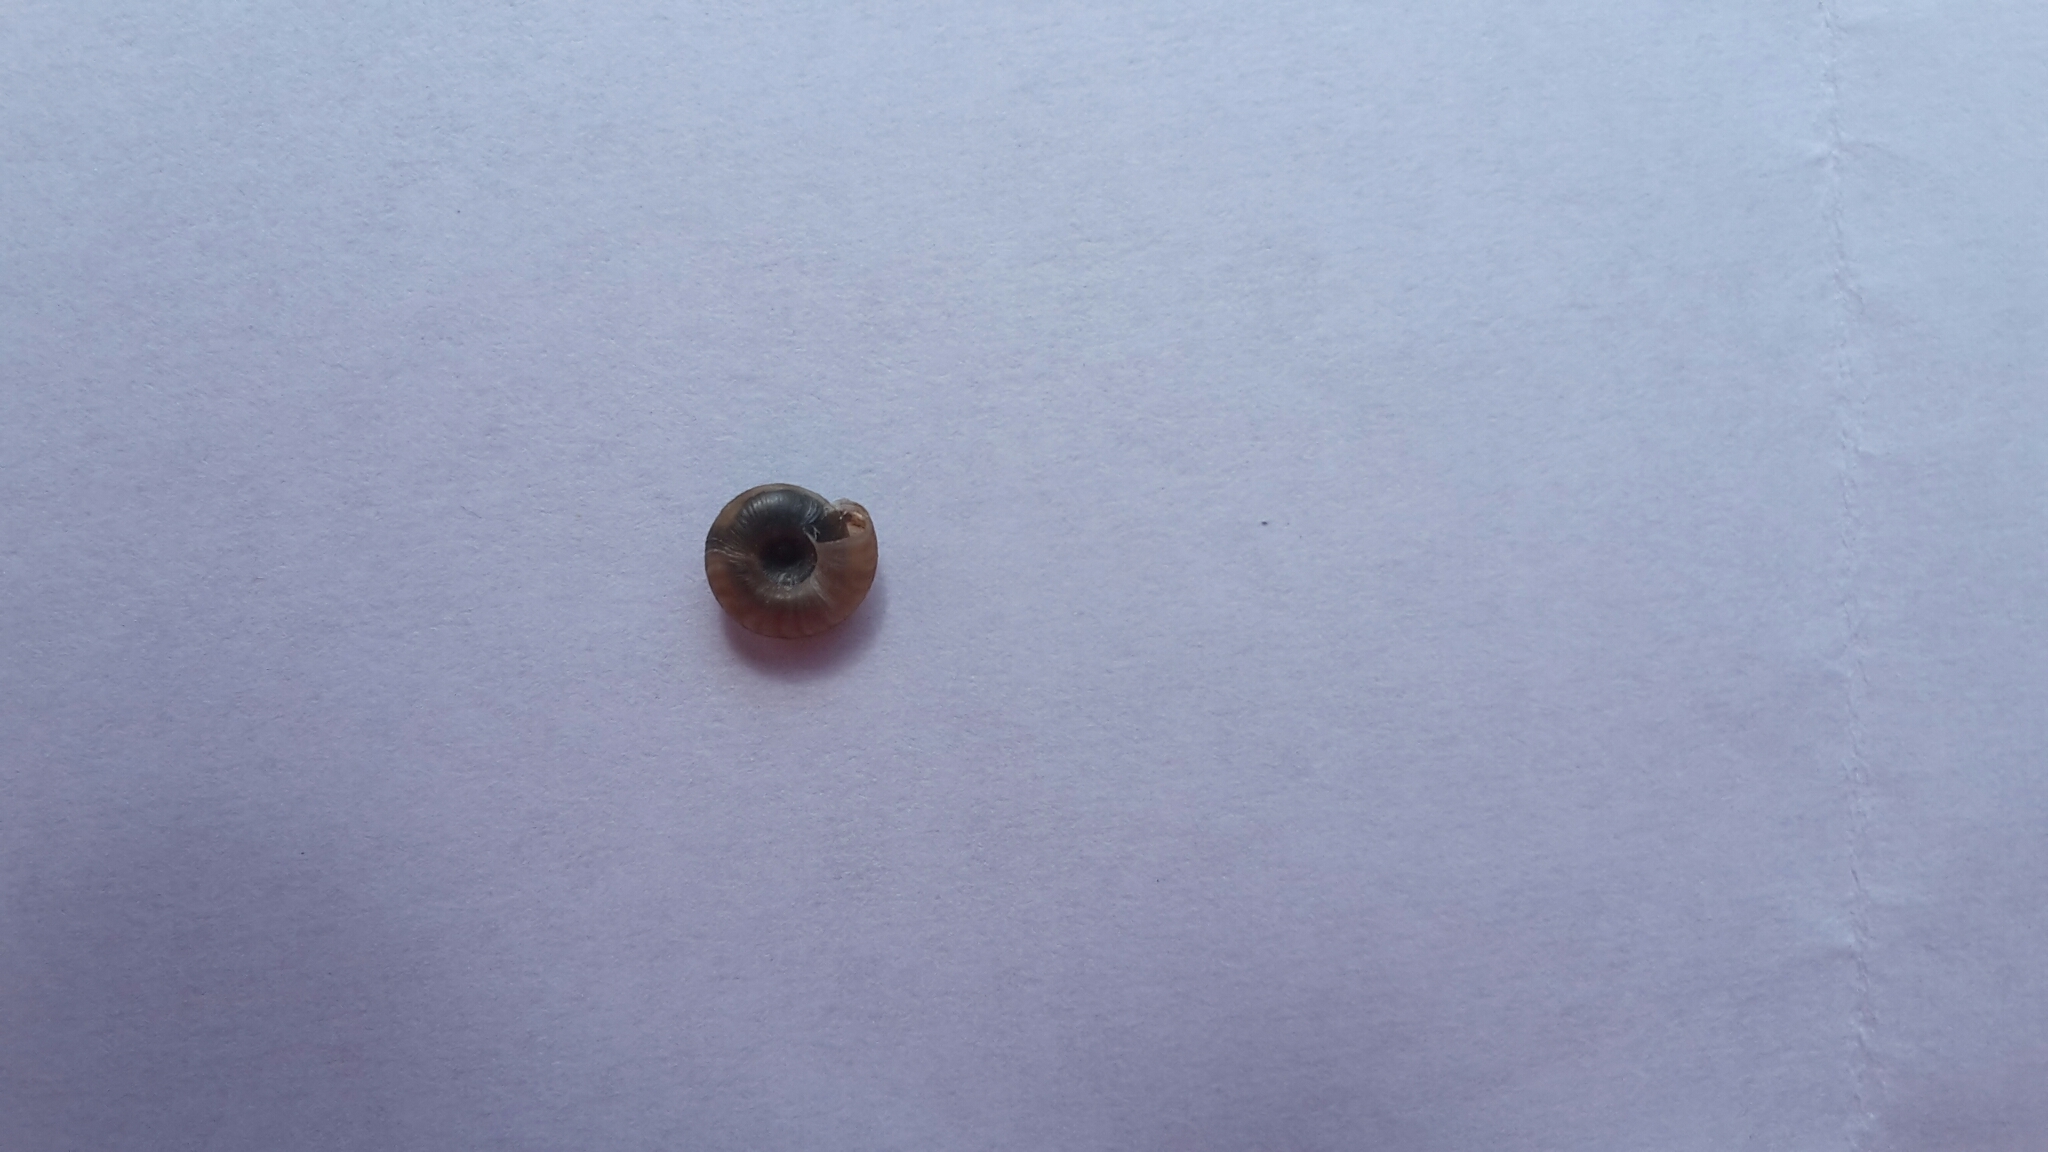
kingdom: Animalia
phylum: Mollusca
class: Gastropoda
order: Stylommatophora
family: Discidae
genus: Discus
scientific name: Discus rotundatus
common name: Rounded snail
